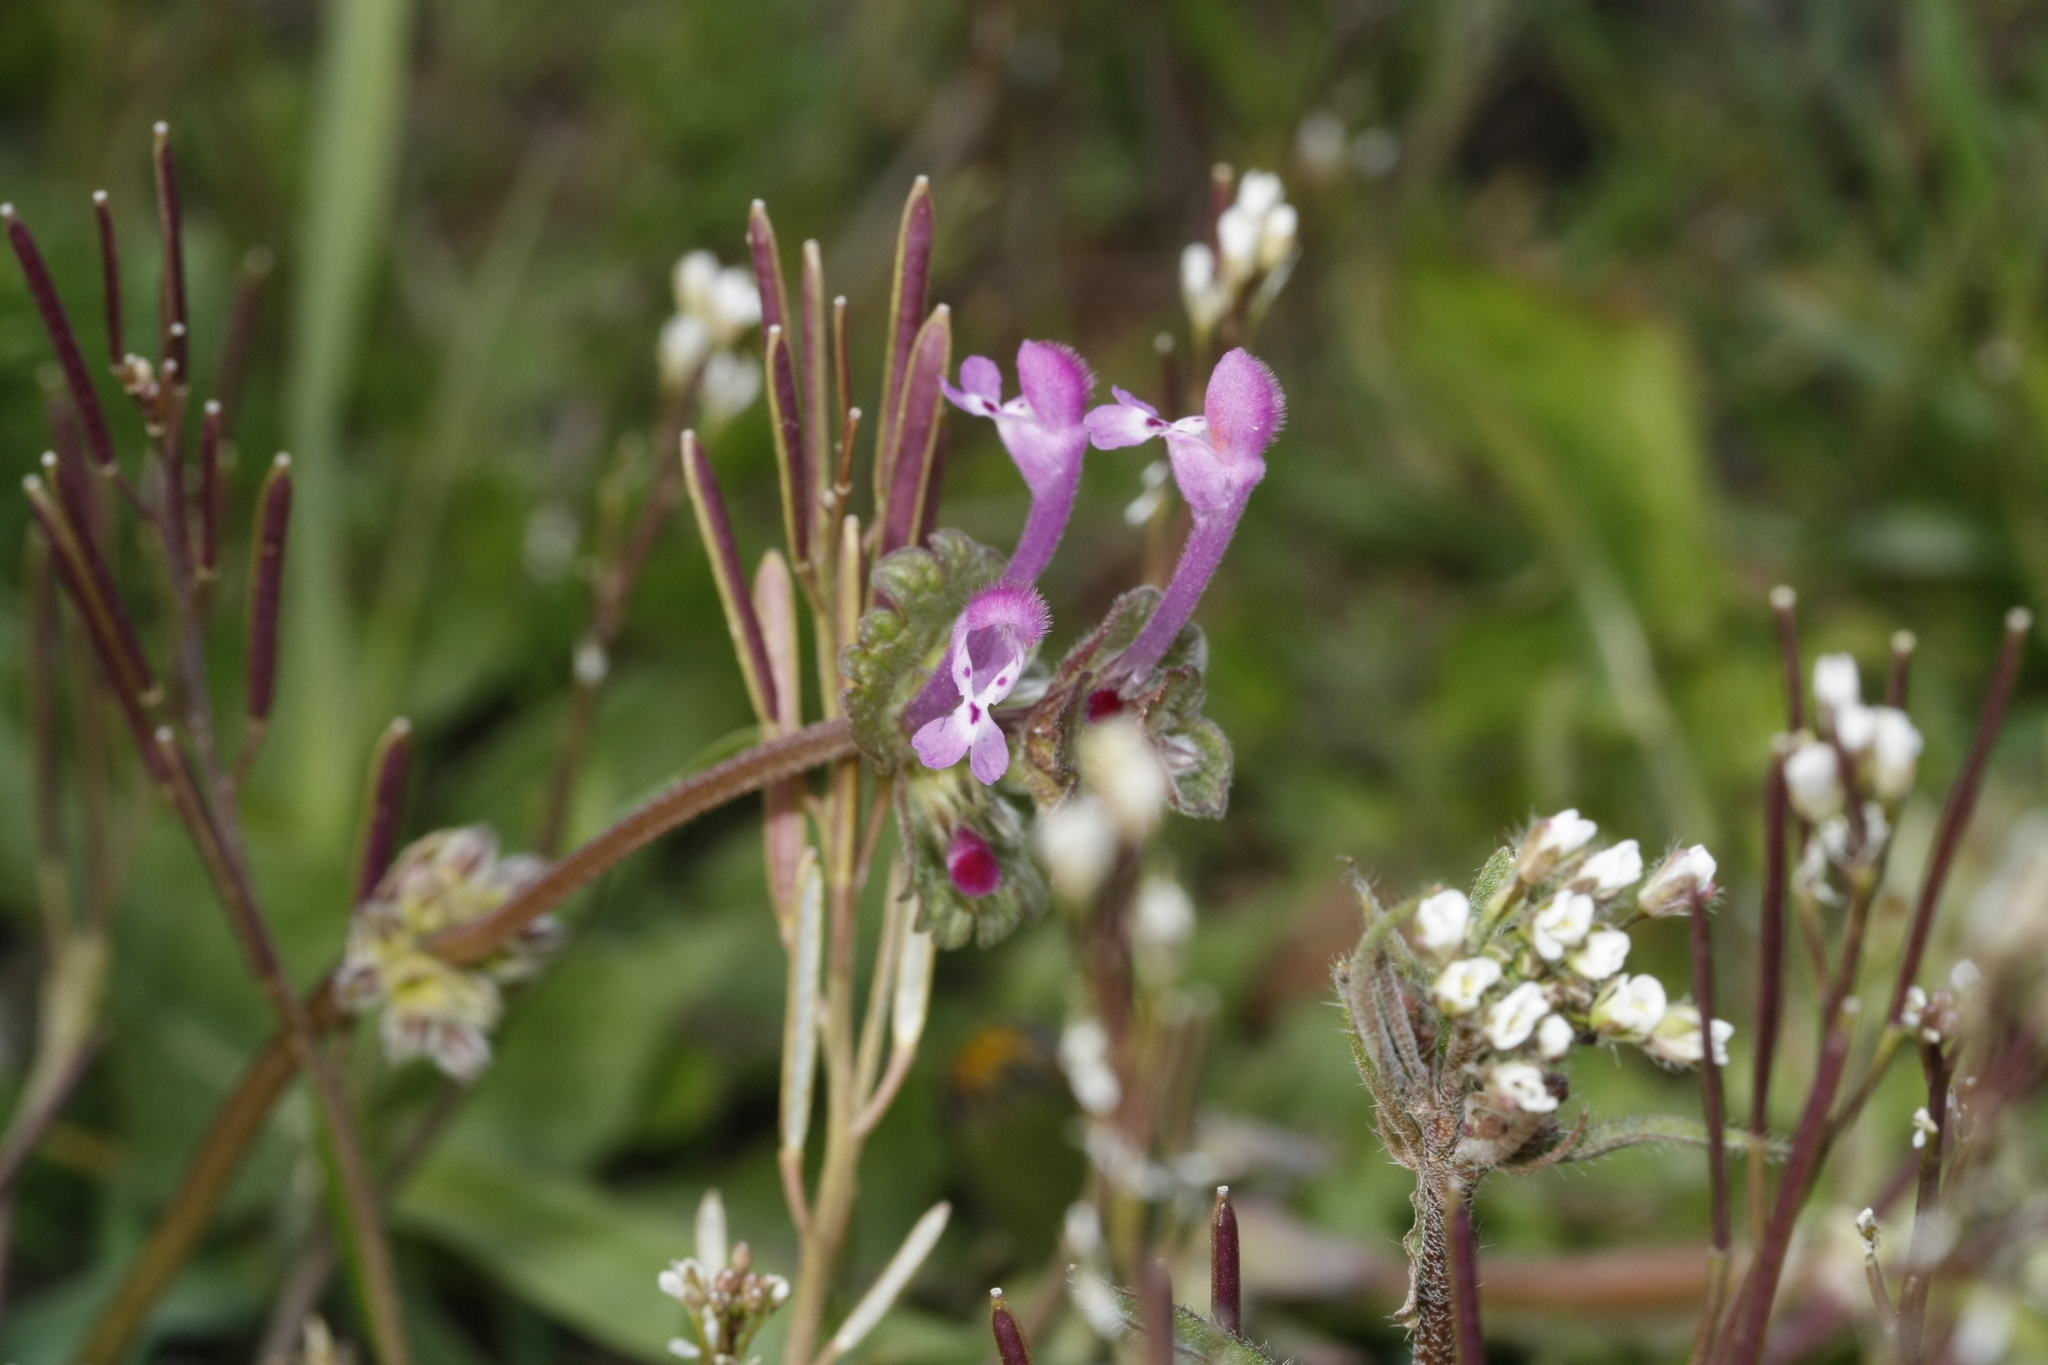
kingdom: Plantae
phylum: Tracheophyta
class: Magnoliopsida
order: Lamiales
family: Lamiaceae
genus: Lamium
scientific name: Lamium amplexicaule
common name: Henbit dead-nettle
